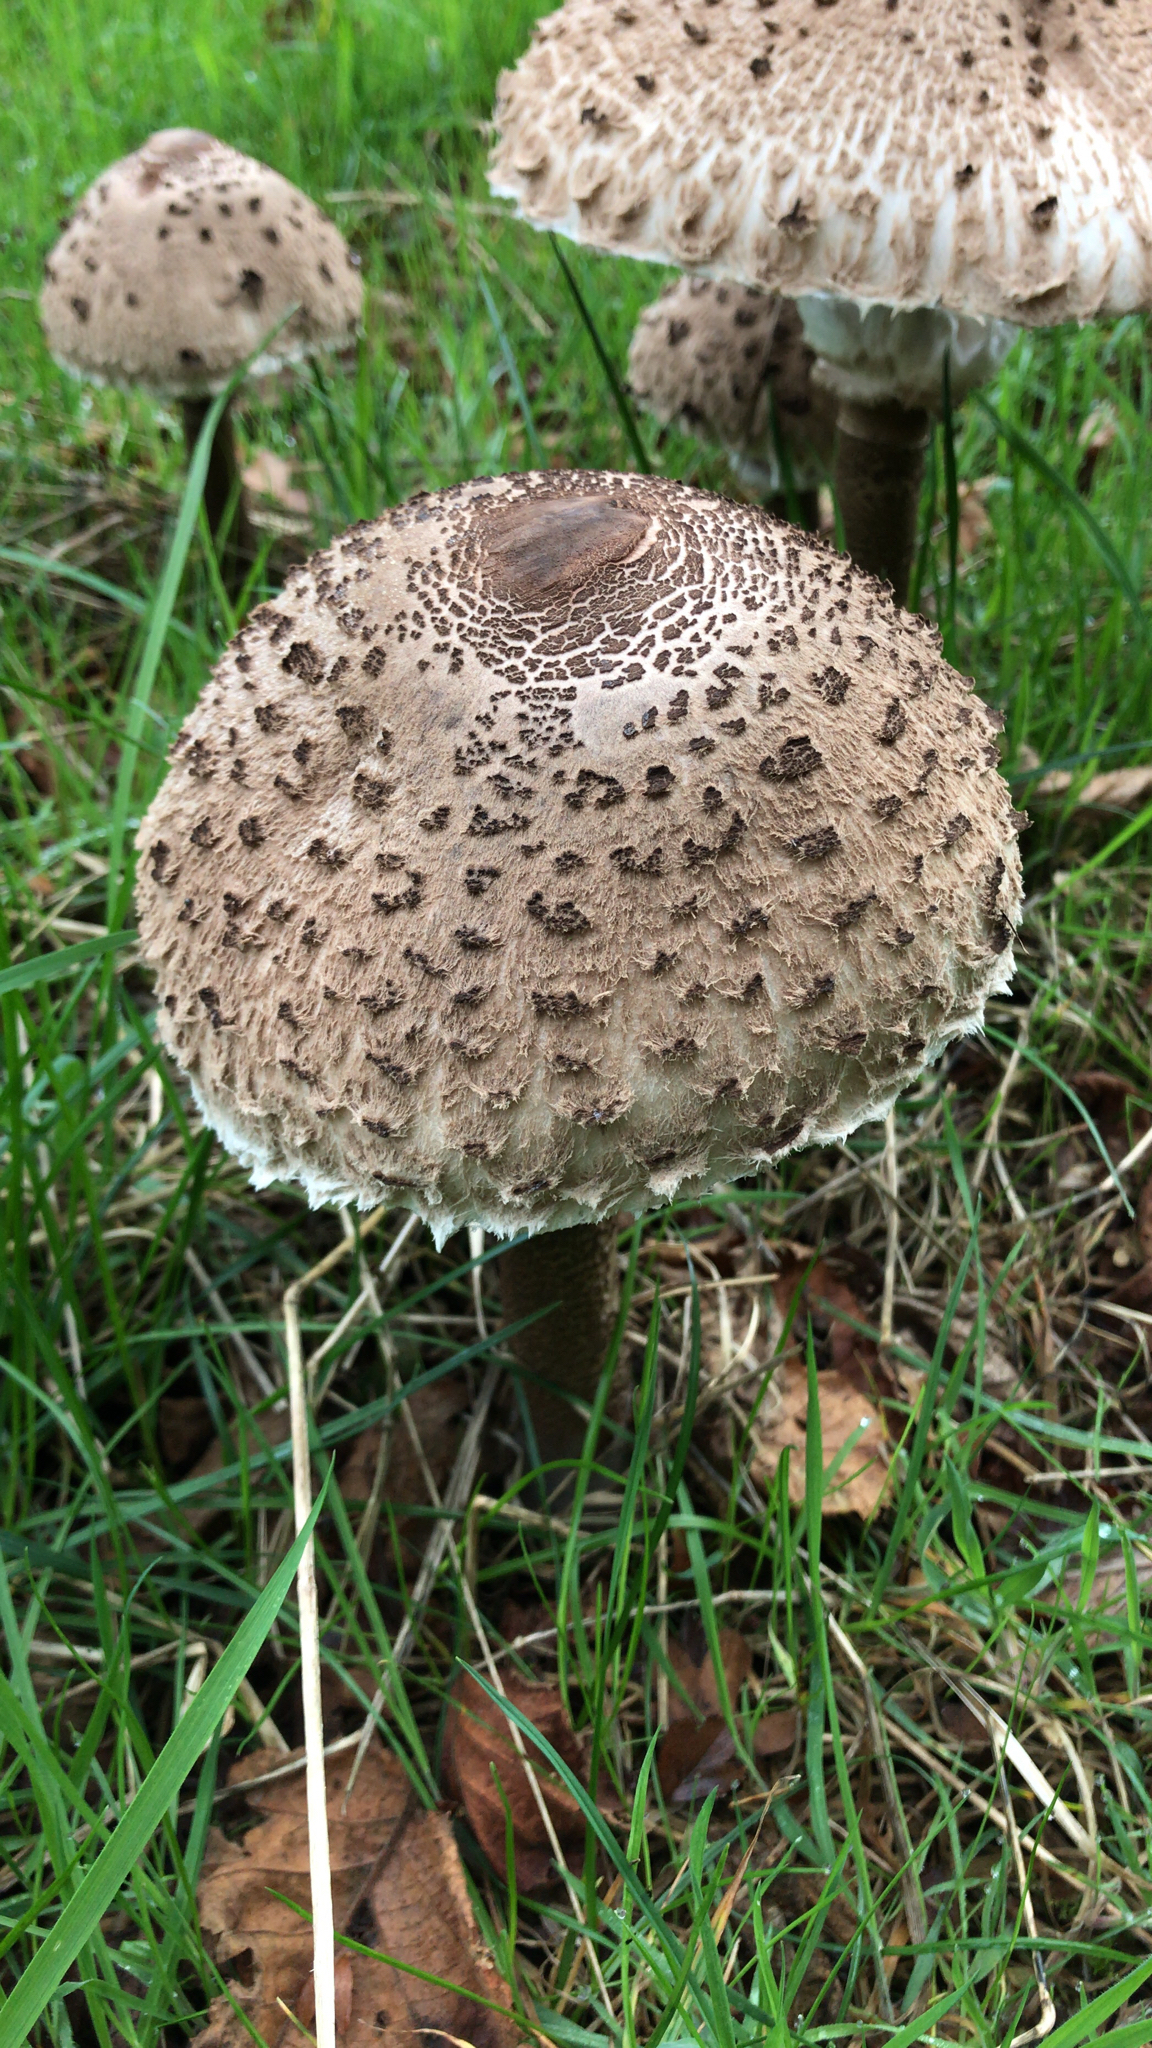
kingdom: Fungi
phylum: Basidiomycota
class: Agaricomycetes
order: Agaricales
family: Agaricaceae
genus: Macrolepiota
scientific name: Macrolepiota procera
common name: Parasol
